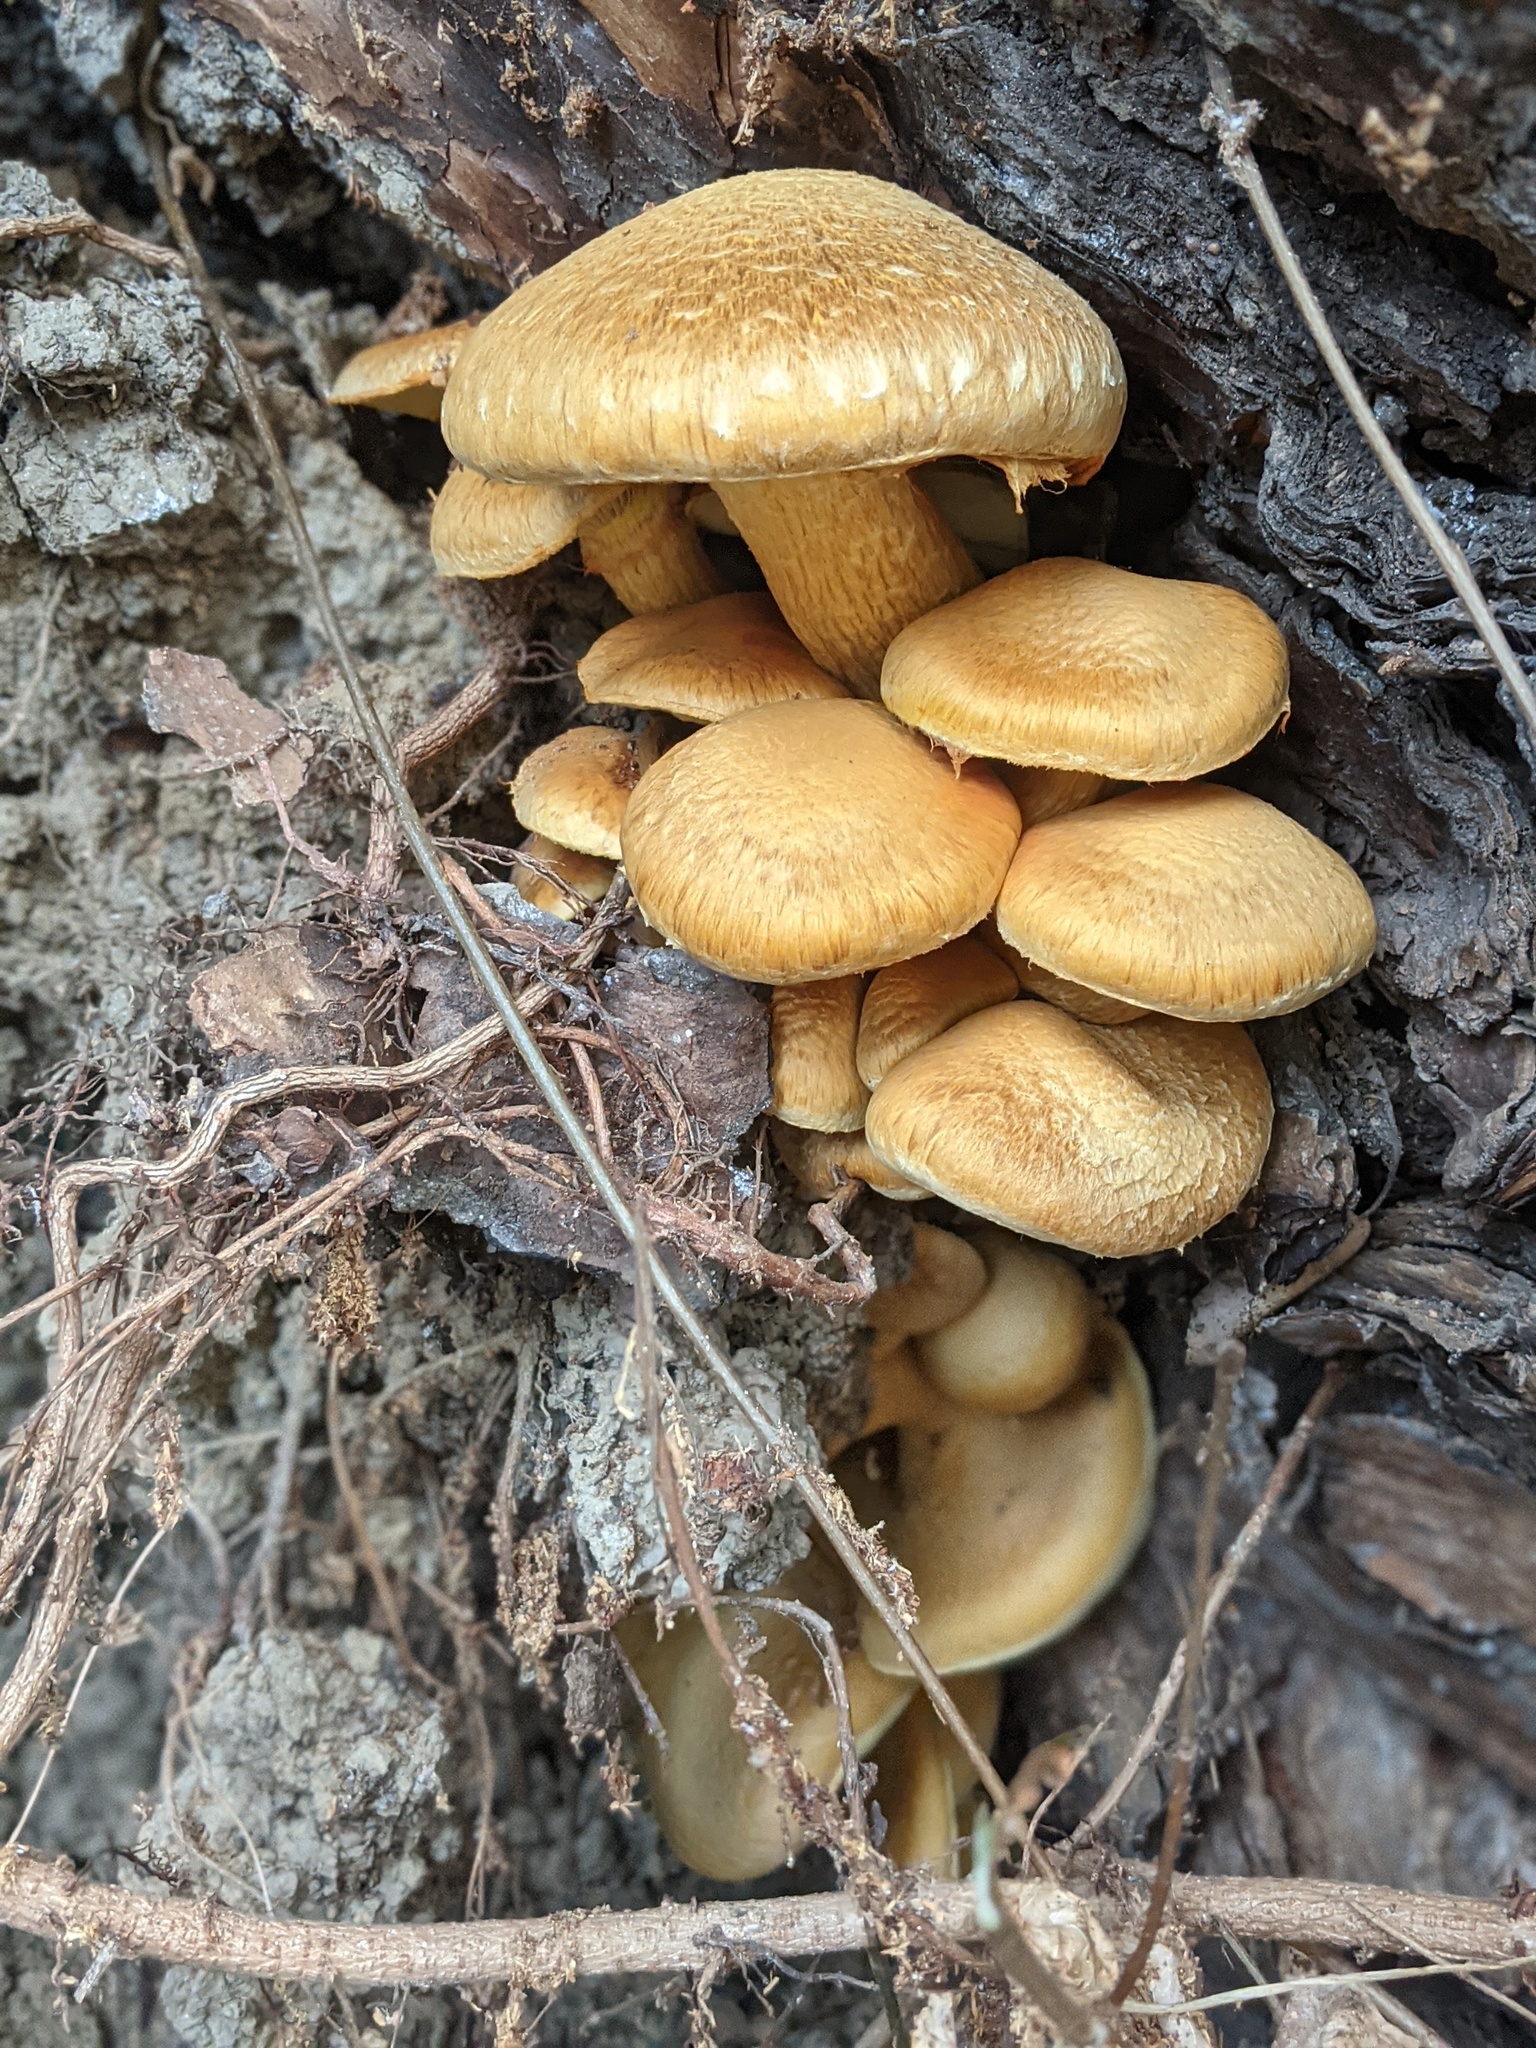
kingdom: Fungi
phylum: Basidiomycota
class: Agaricomycetes
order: Agaricales
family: Hymenogastraceae
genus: Gymnopilus
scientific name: Gymnopilus ventricosus
